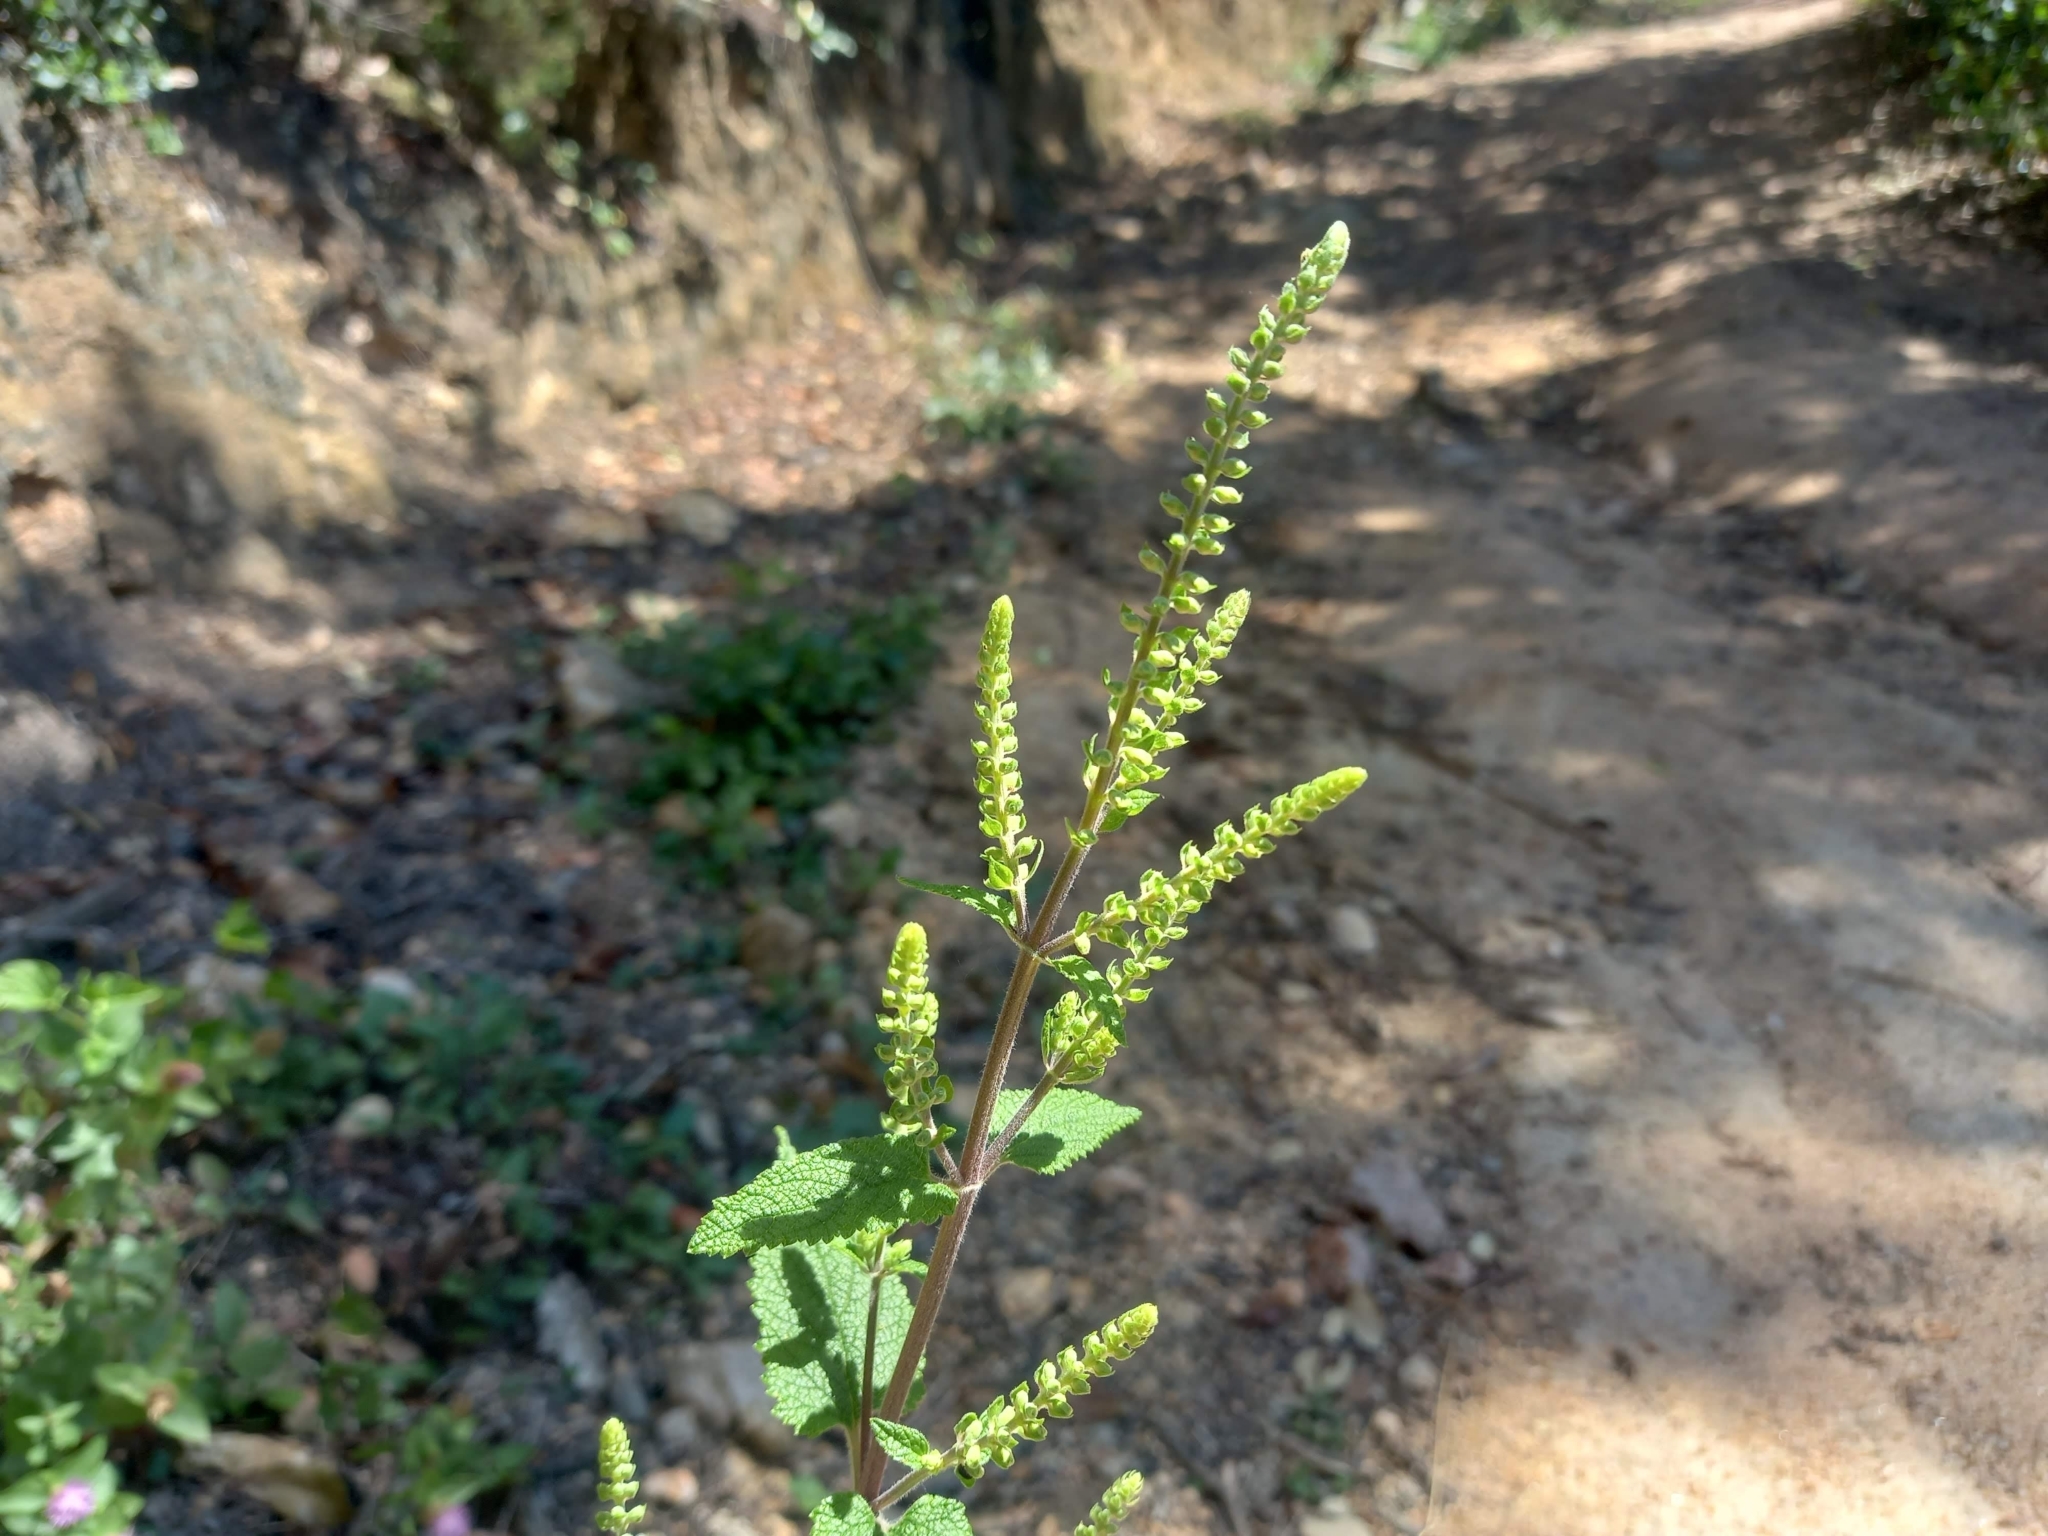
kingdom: Plantae
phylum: Tracheophyta
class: Magnoliopsida
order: Lamiales
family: Lamiaceae
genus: Teucrium
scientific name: Teucrium scorodonia
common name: Woodland germander
